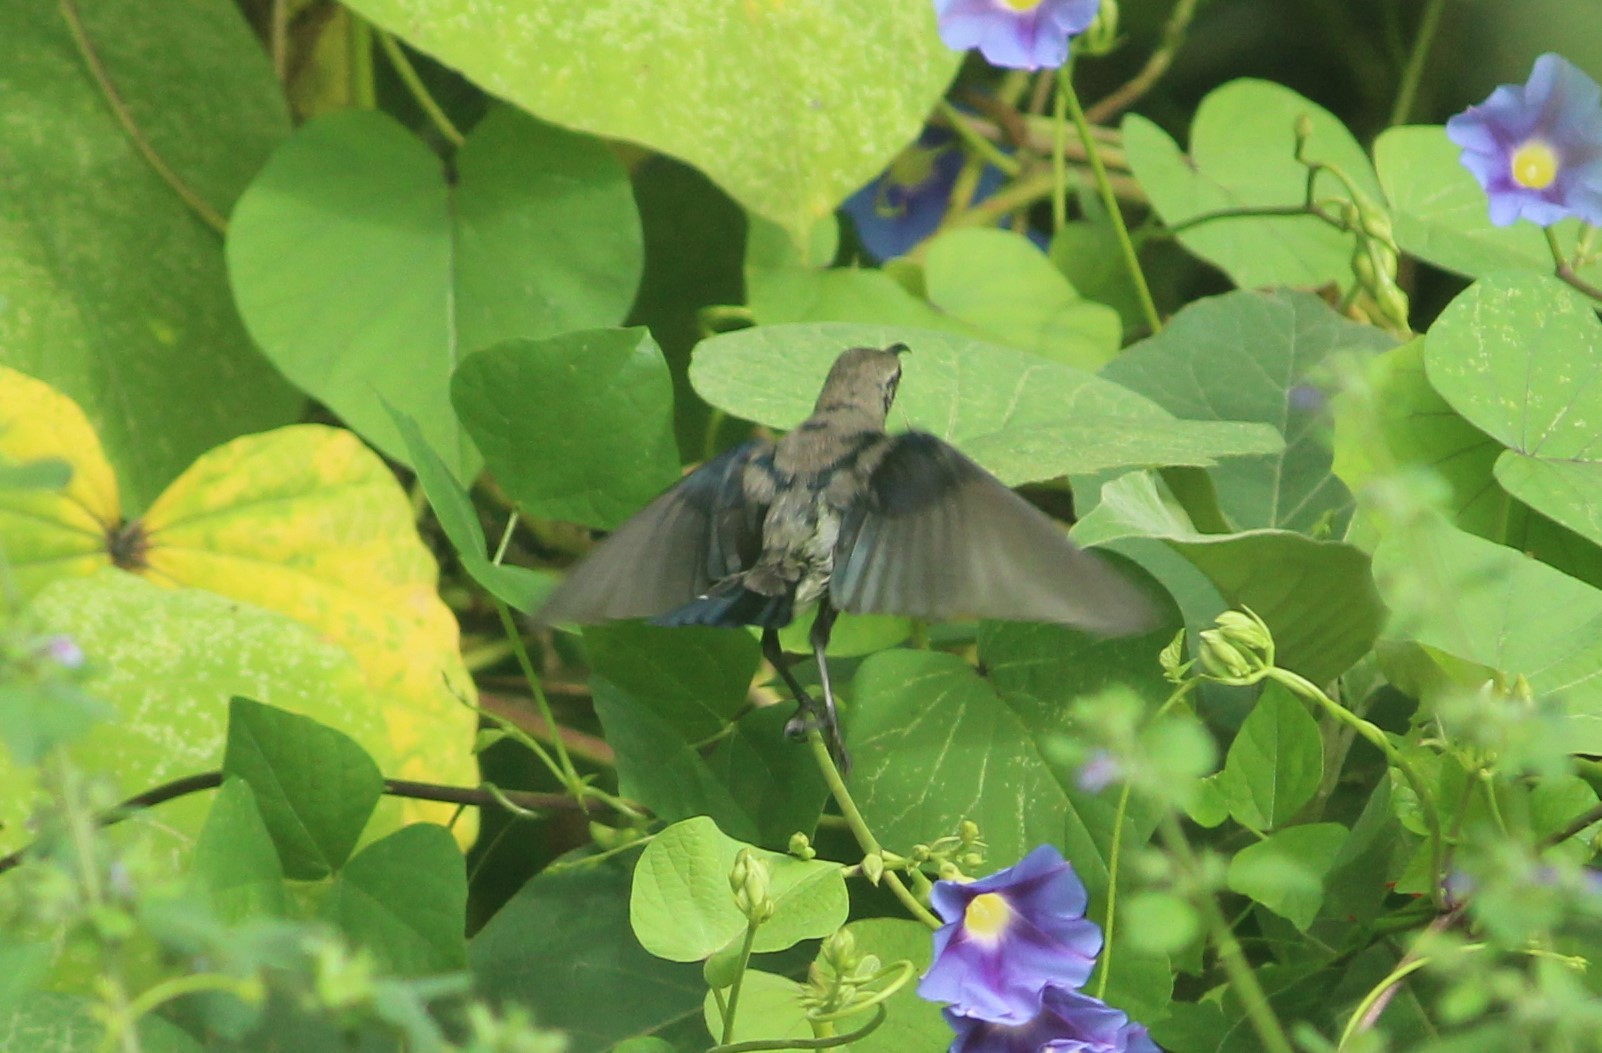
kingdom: Animalia
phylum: Chordata
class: Aves
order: Passeriformes
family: Nectariniidae
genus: Cinnyris
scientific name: Cinnyris asiaticus
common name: Purple sunbird
